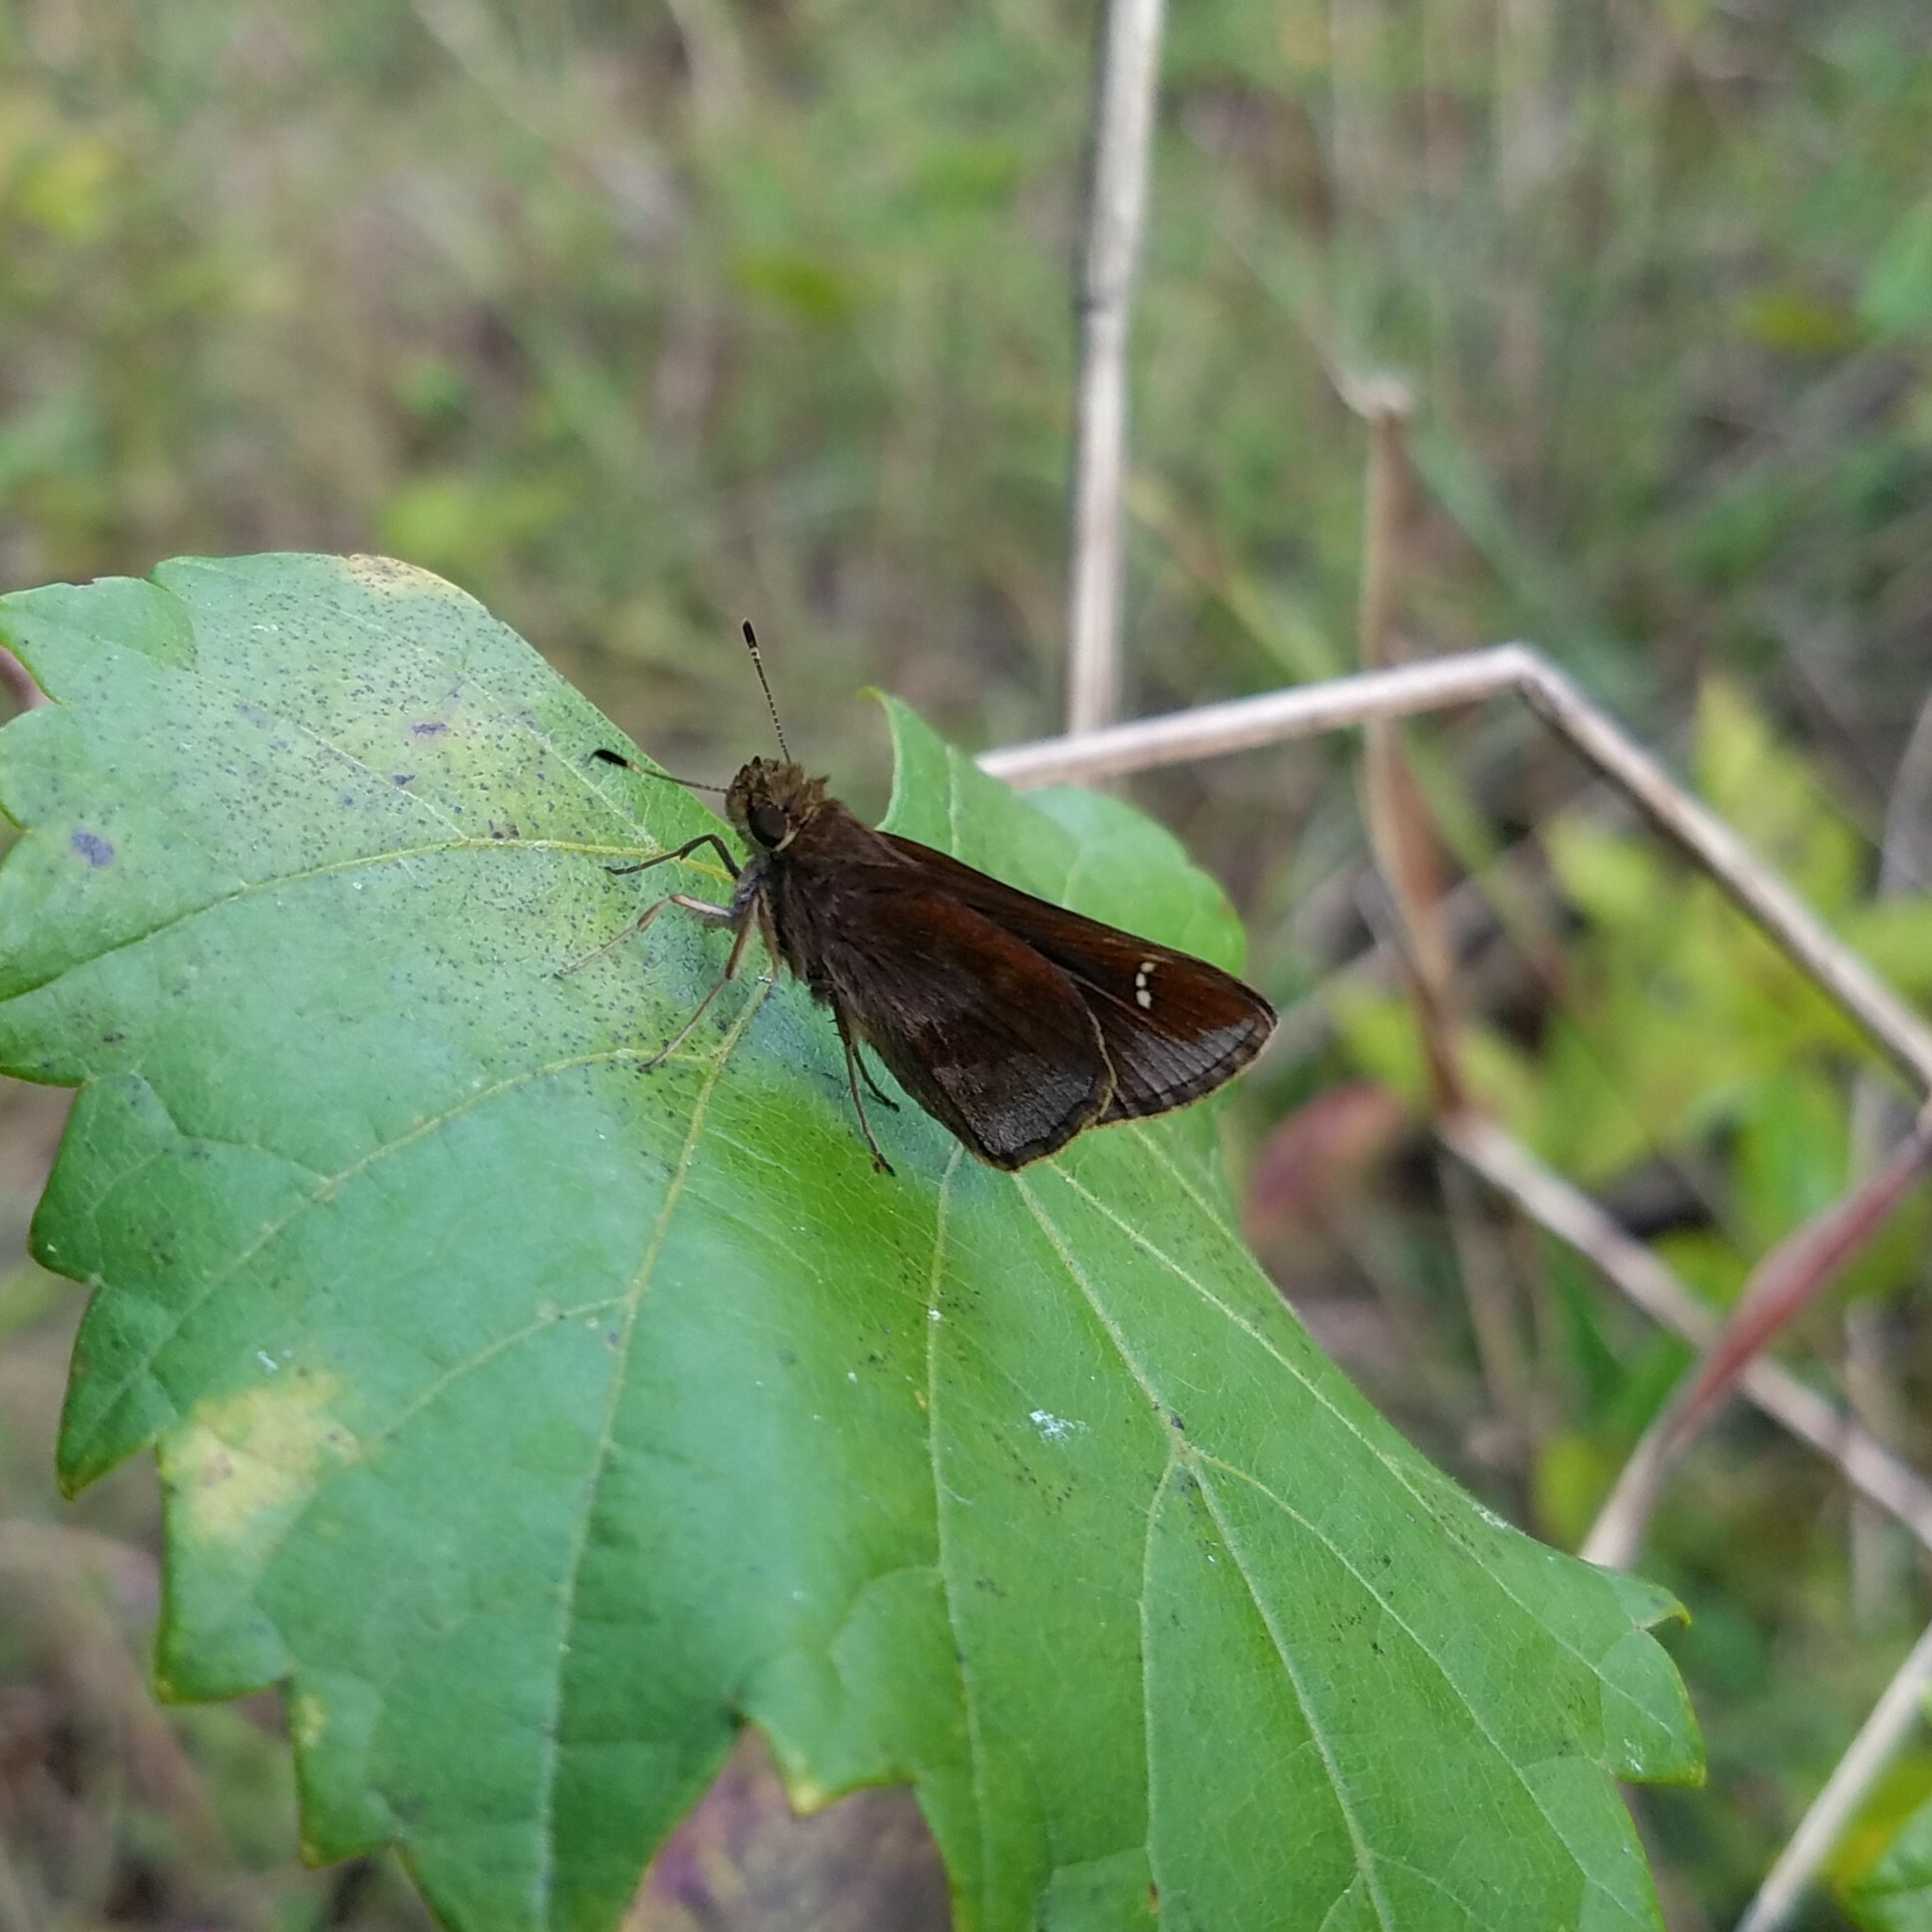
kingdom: Animalia
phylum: Arthropoda
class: Insecta
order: Lepidoptera
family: Hesperiidae
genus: Lerema
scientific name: Lerema accius
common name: Clouded skipper
